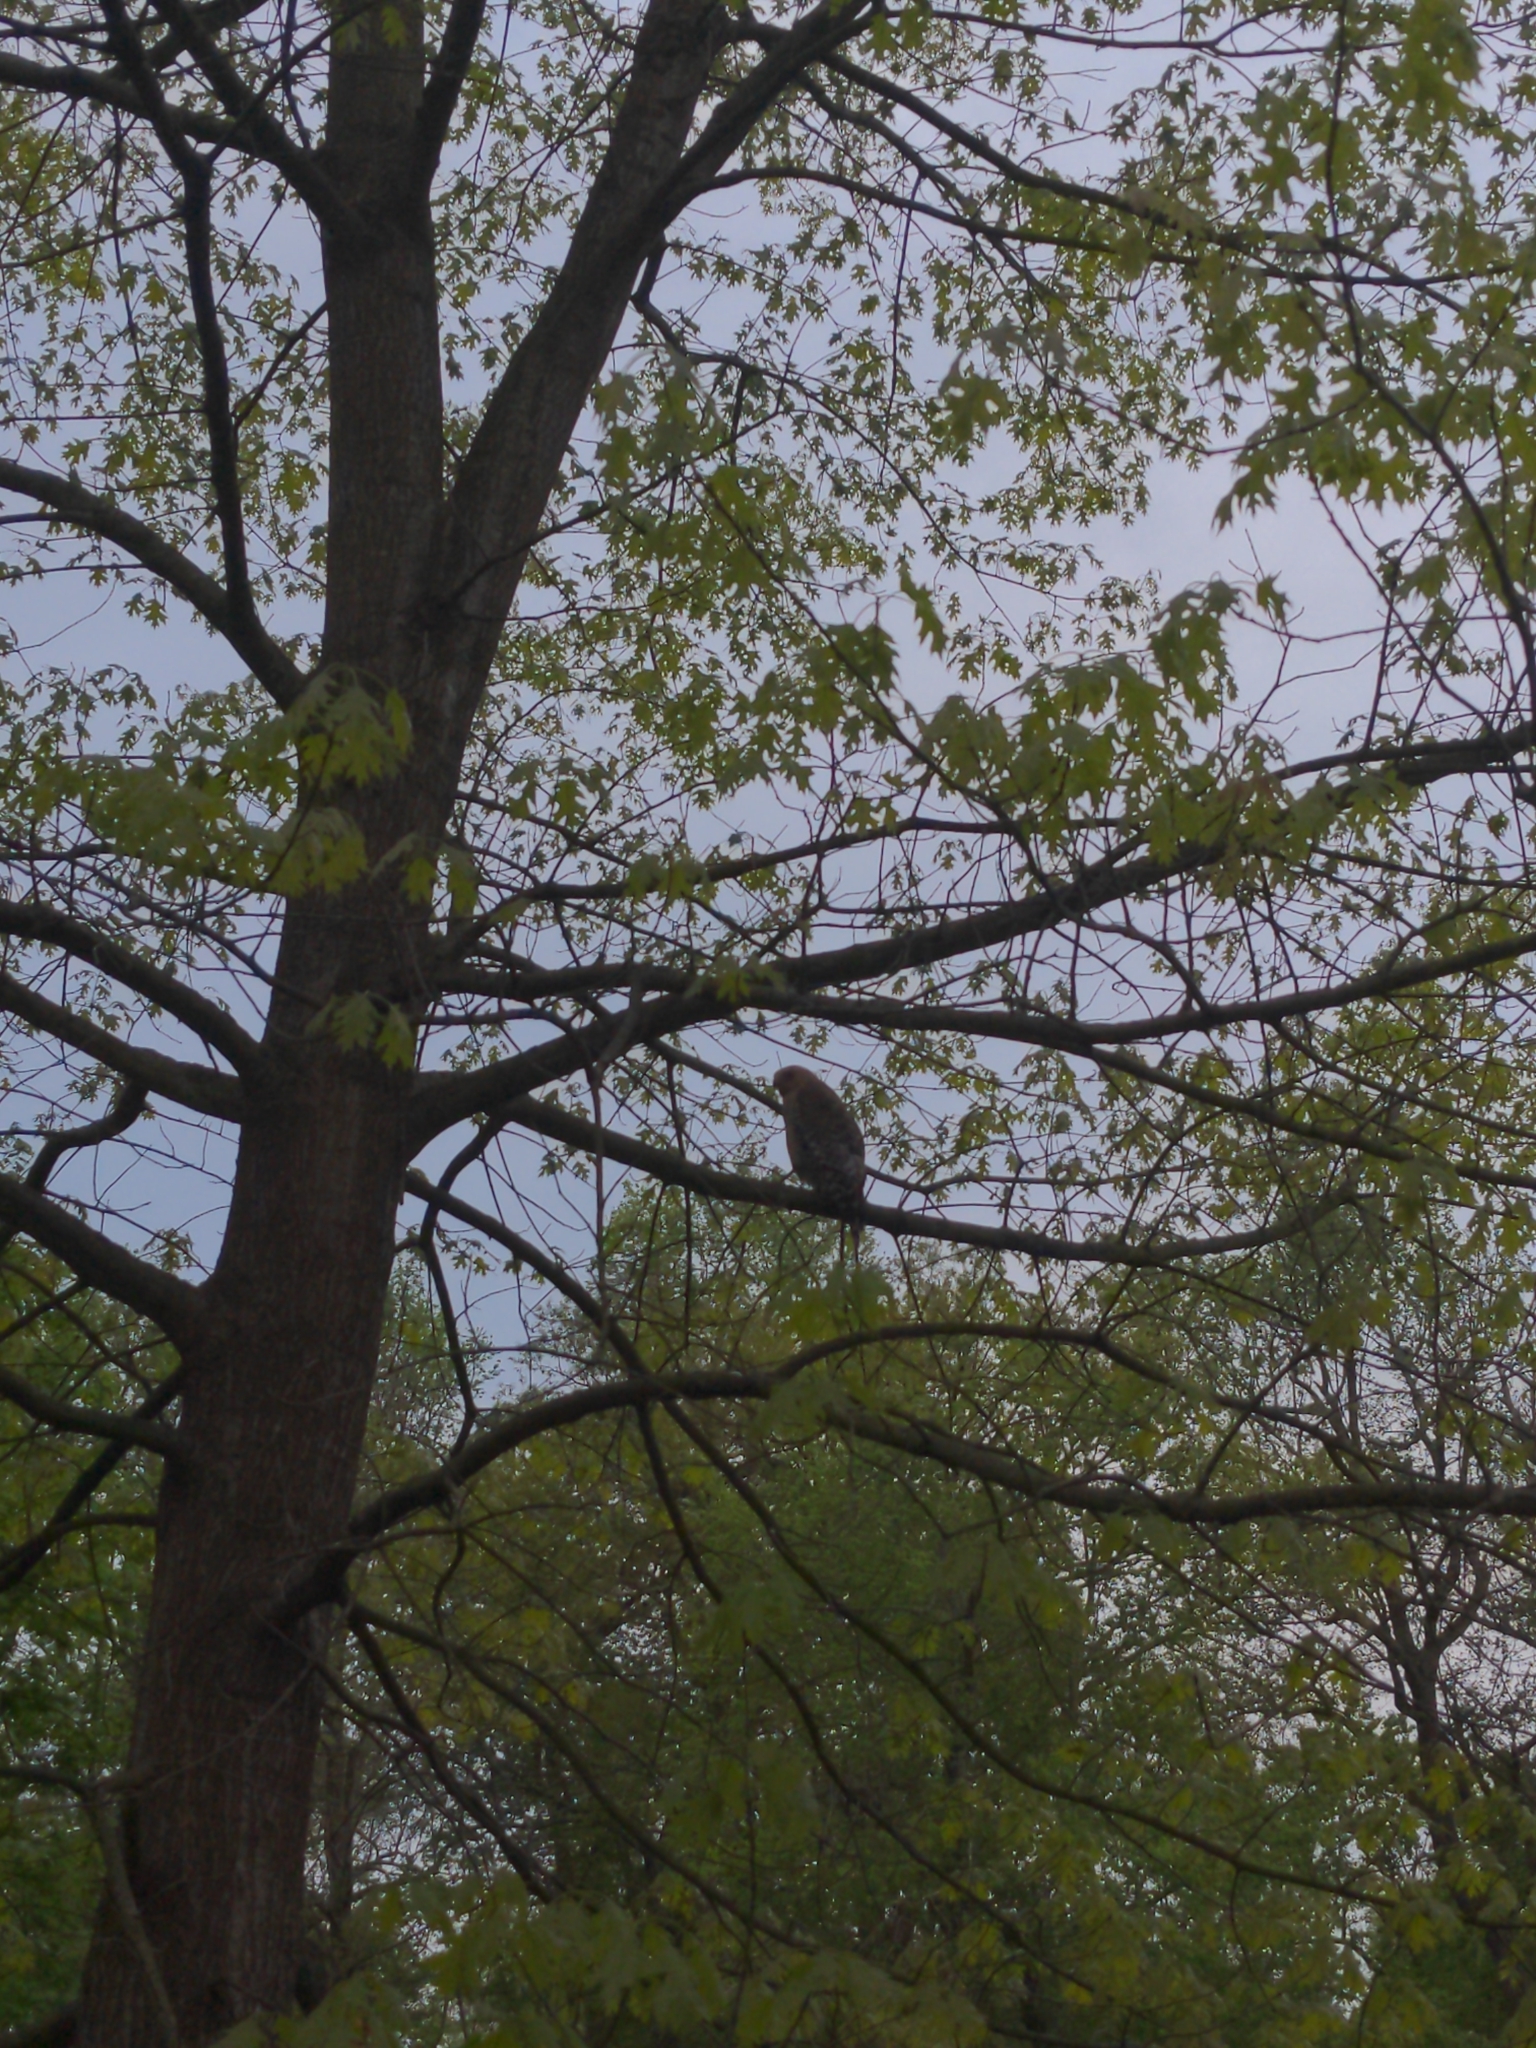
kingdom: Animalia
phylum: Chordata
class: Aves
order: Accipitriformes
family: Accipitridae
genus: Buteo
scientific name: Buteo lineatus
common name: Red-shouldered hawk
